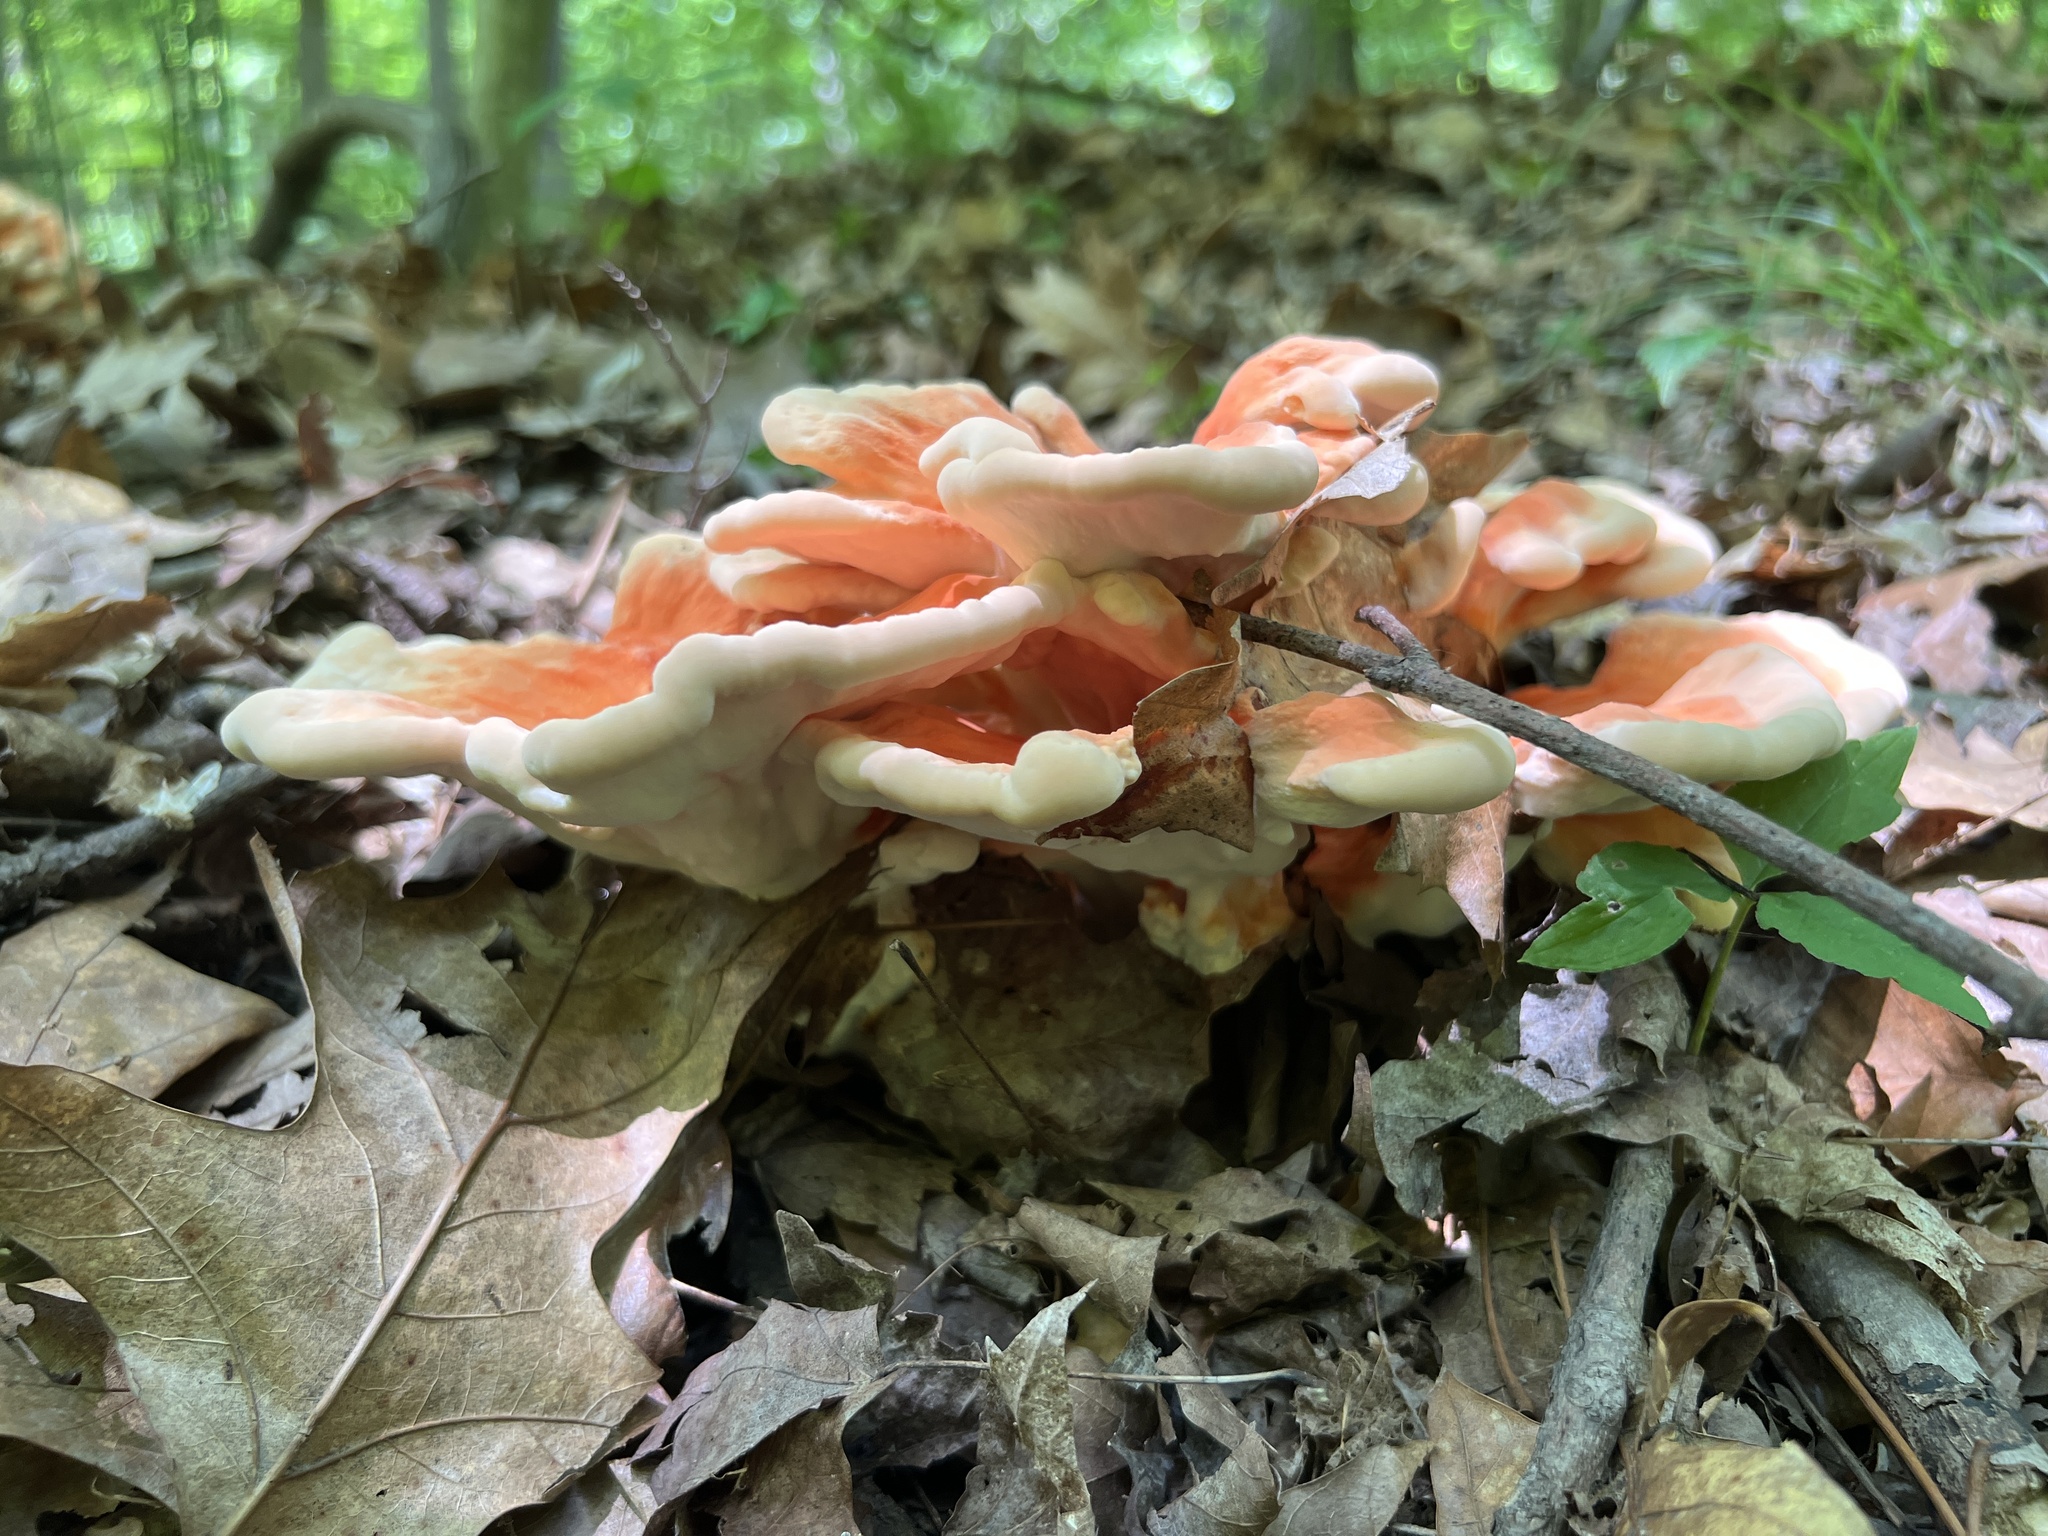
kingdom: Fungi
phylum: Basidiomycota
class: Agaricomycetes
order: Polyporales
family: Laetiporaceae
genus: Laetiporus
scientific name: Laetiporus sulphureus
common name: Chicken of the woods
